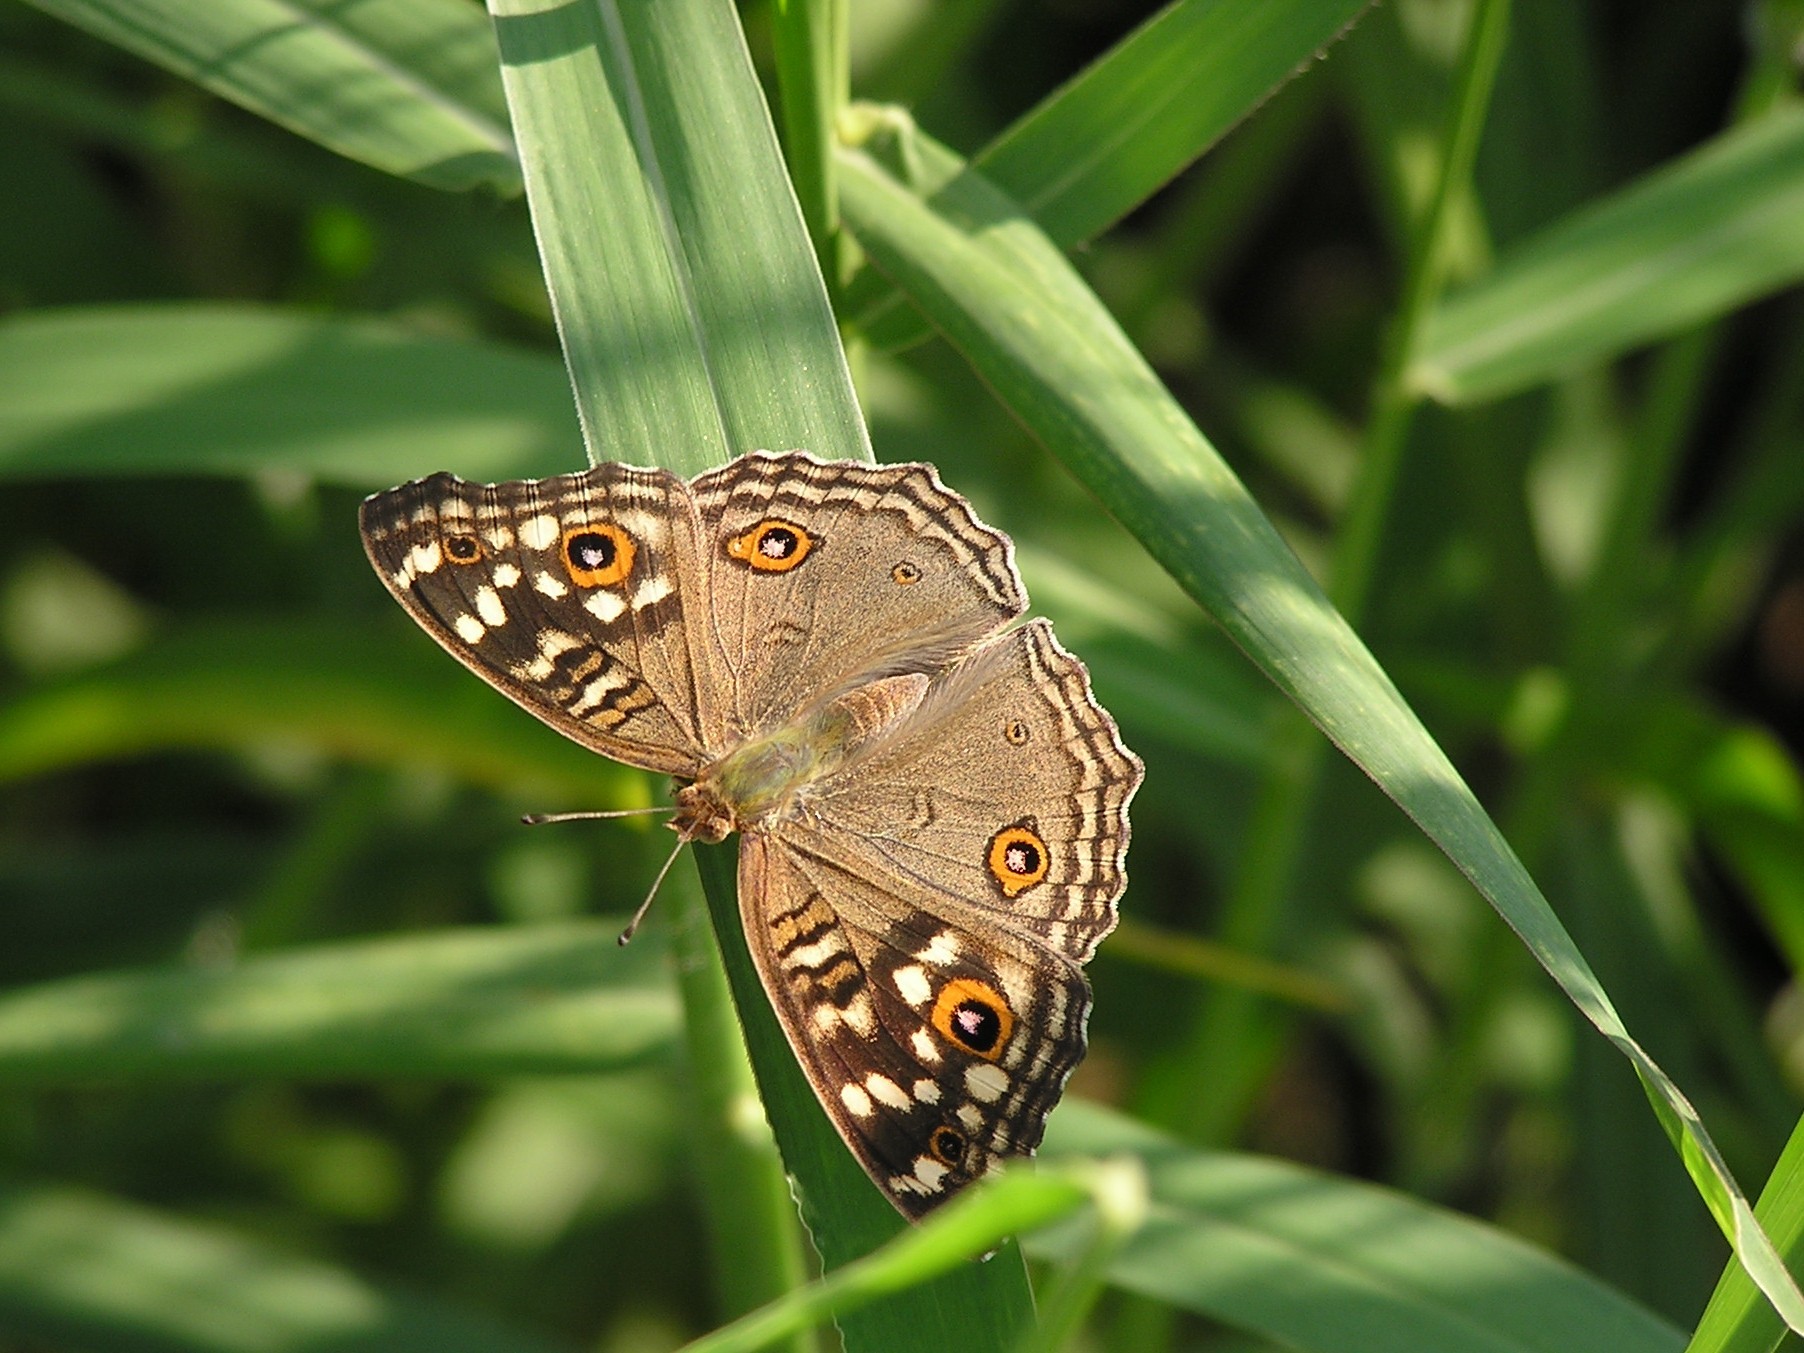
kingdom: Animalia
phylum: Arthropoda
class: Insecta
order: Lepidoptera
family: Nymphalidae
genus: Junonia
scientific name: Junonia lemonias
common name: Lemon pansy
